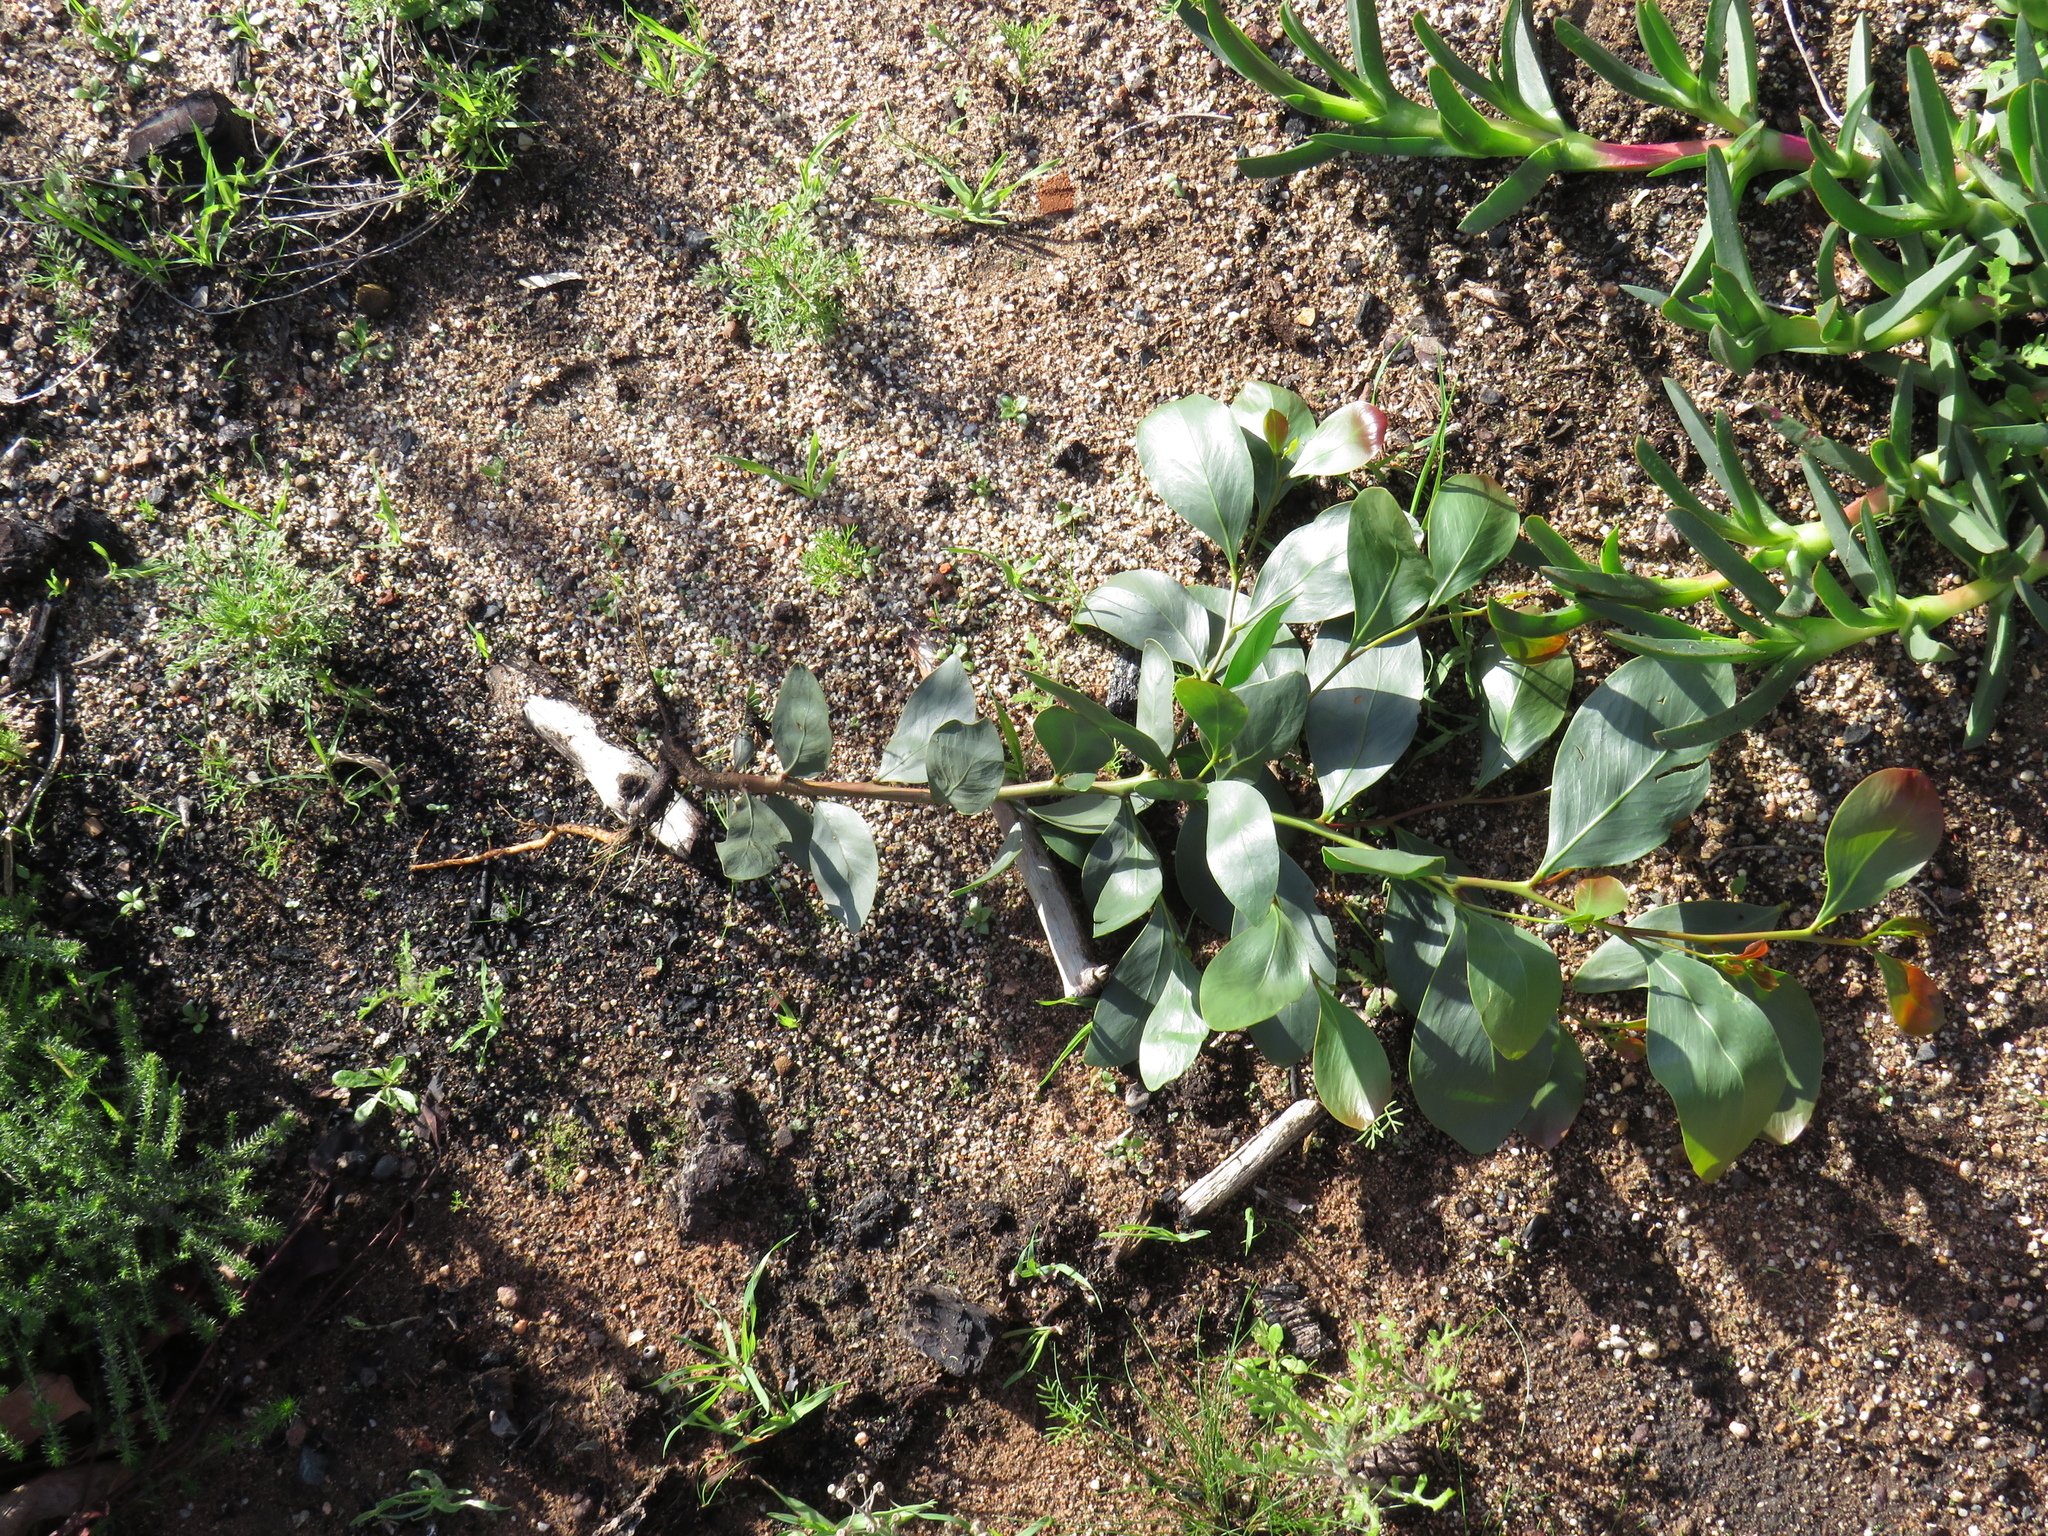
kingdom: Plantae
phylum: Tracheophyta
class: Magnoliopsida
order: Fabales
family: Fabaceae
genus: Acacia
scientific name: Acacia pycnantha
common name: Golden wattle
